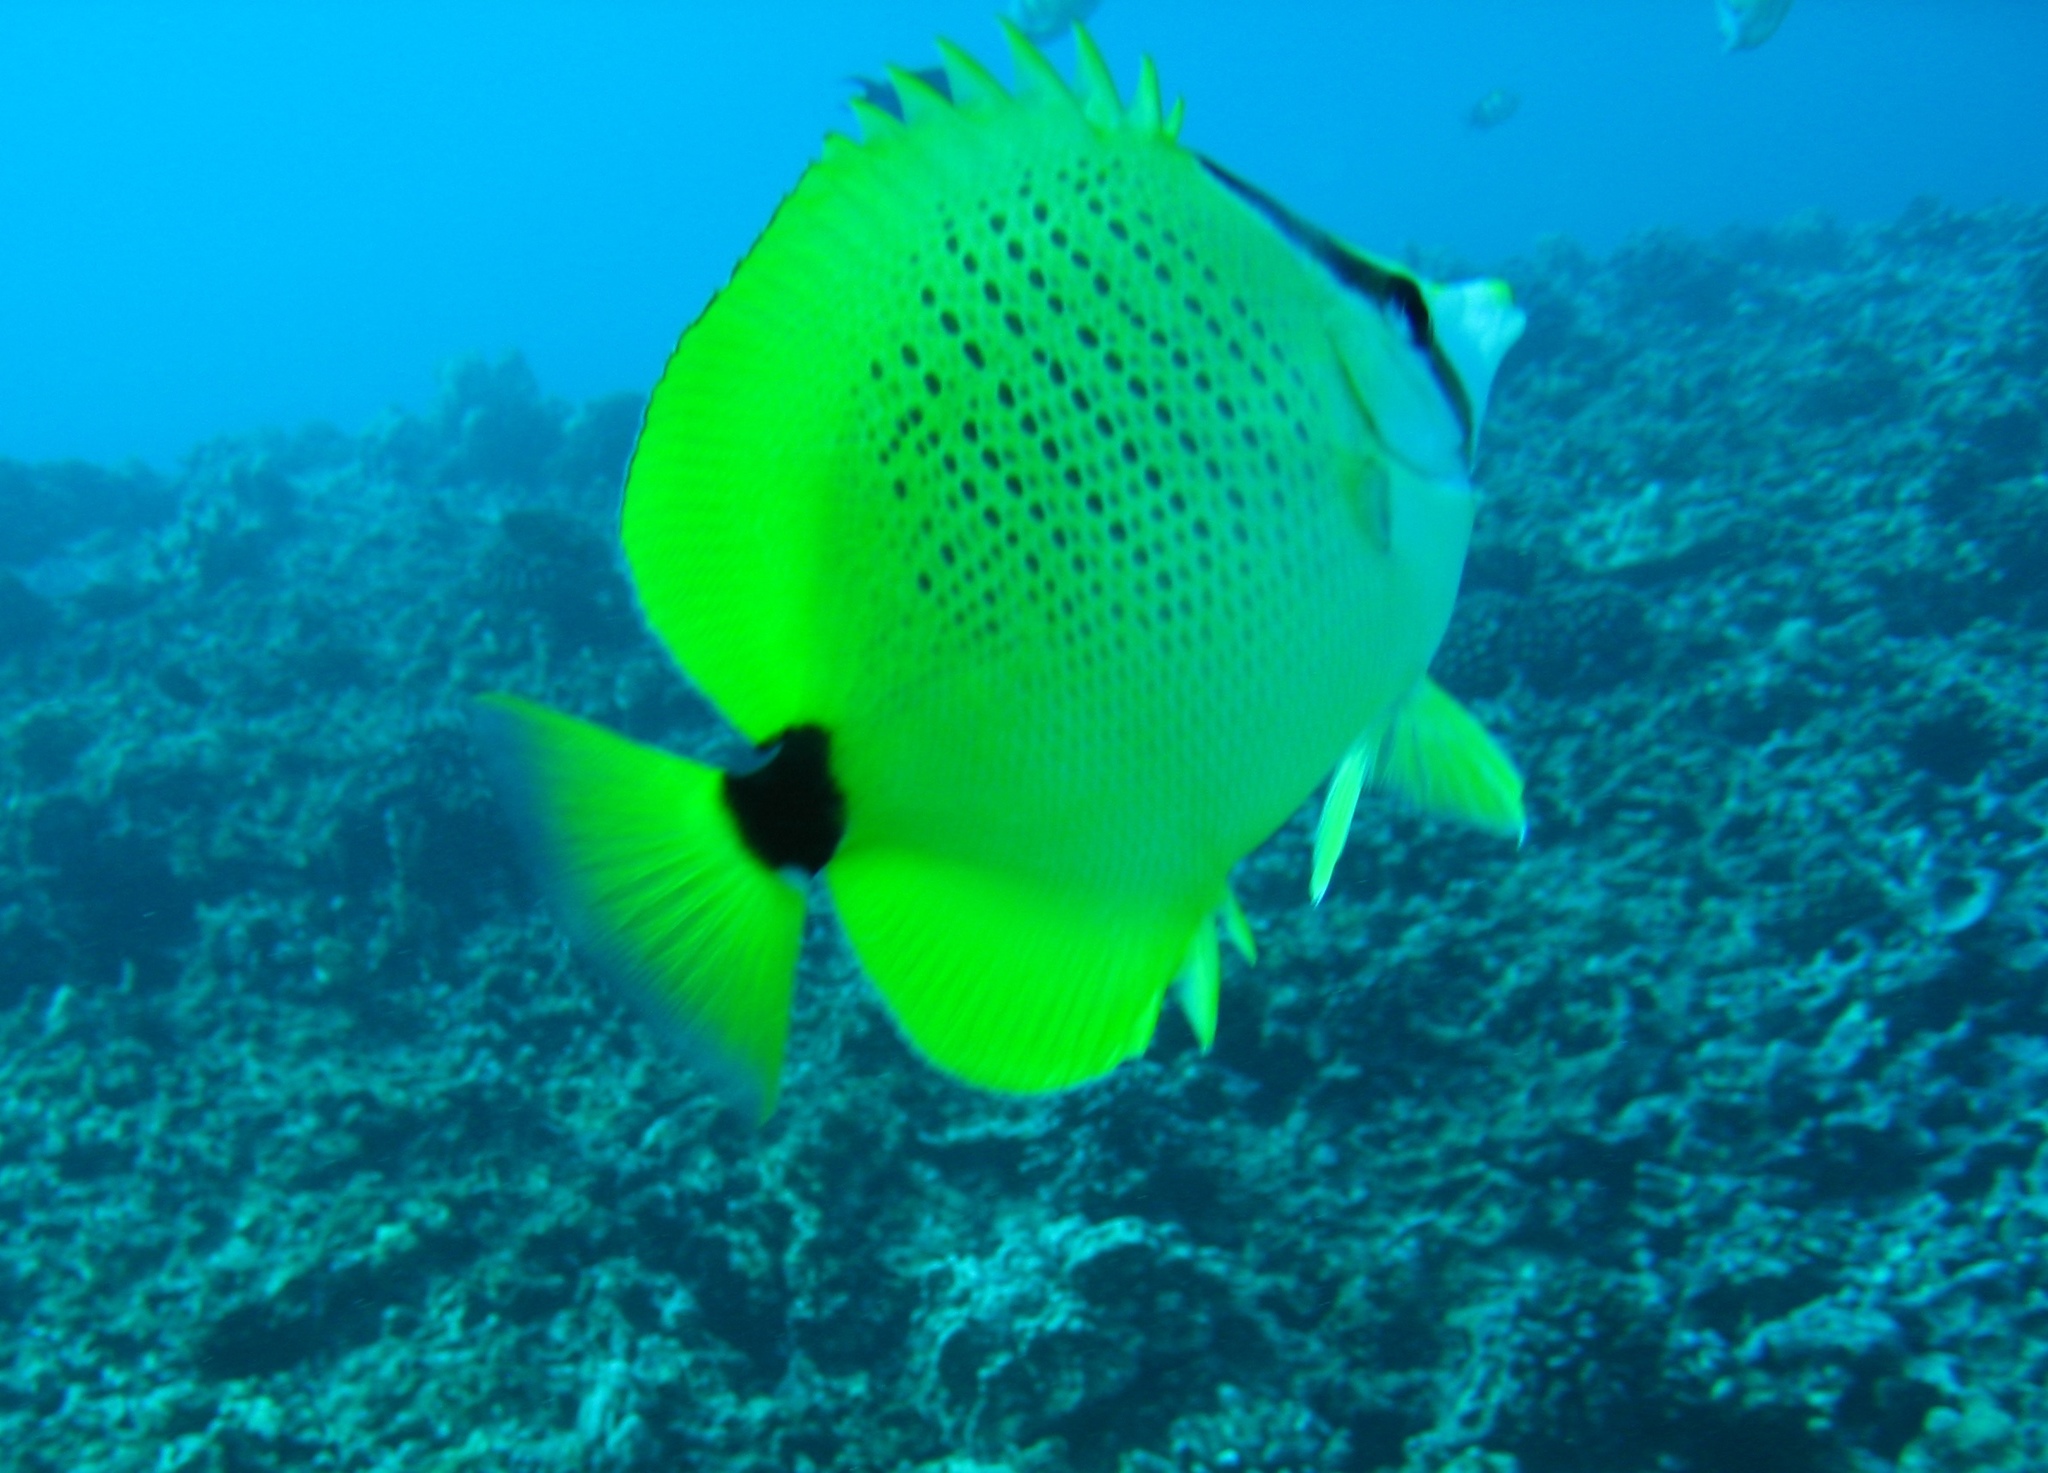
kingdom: Animalia
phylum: Chordata
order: Perciformes
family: Chaetodontidae
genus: Chaetodon
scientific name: Chaetodon miliaris
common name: Lemon butterflyfish
